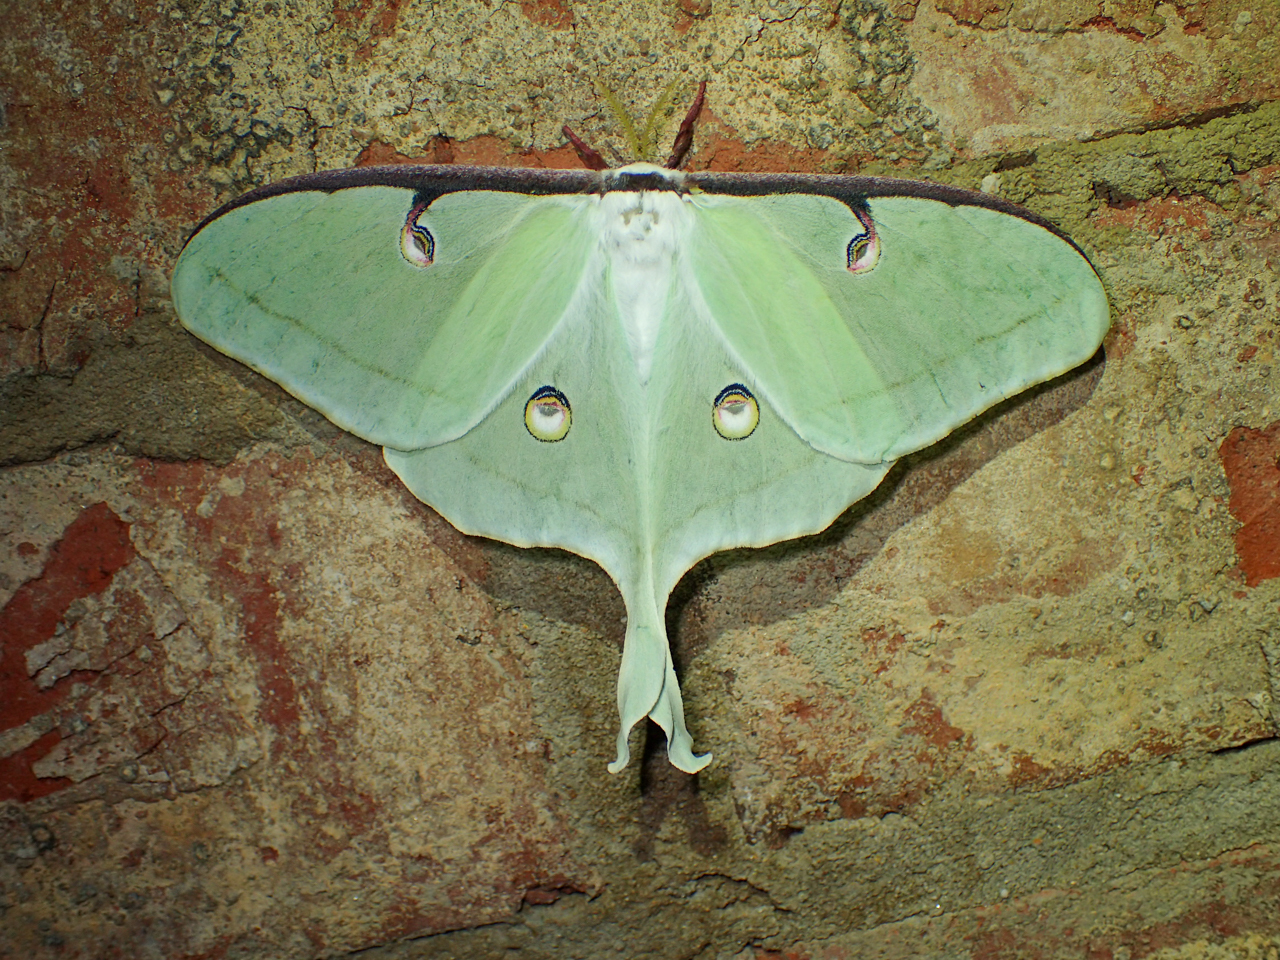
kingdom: Animalia
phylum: Arthropoda
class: Insecta
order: Lepidoptera
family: Saturniidae
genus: Actias
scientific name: Actias luna
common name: Luna moth
